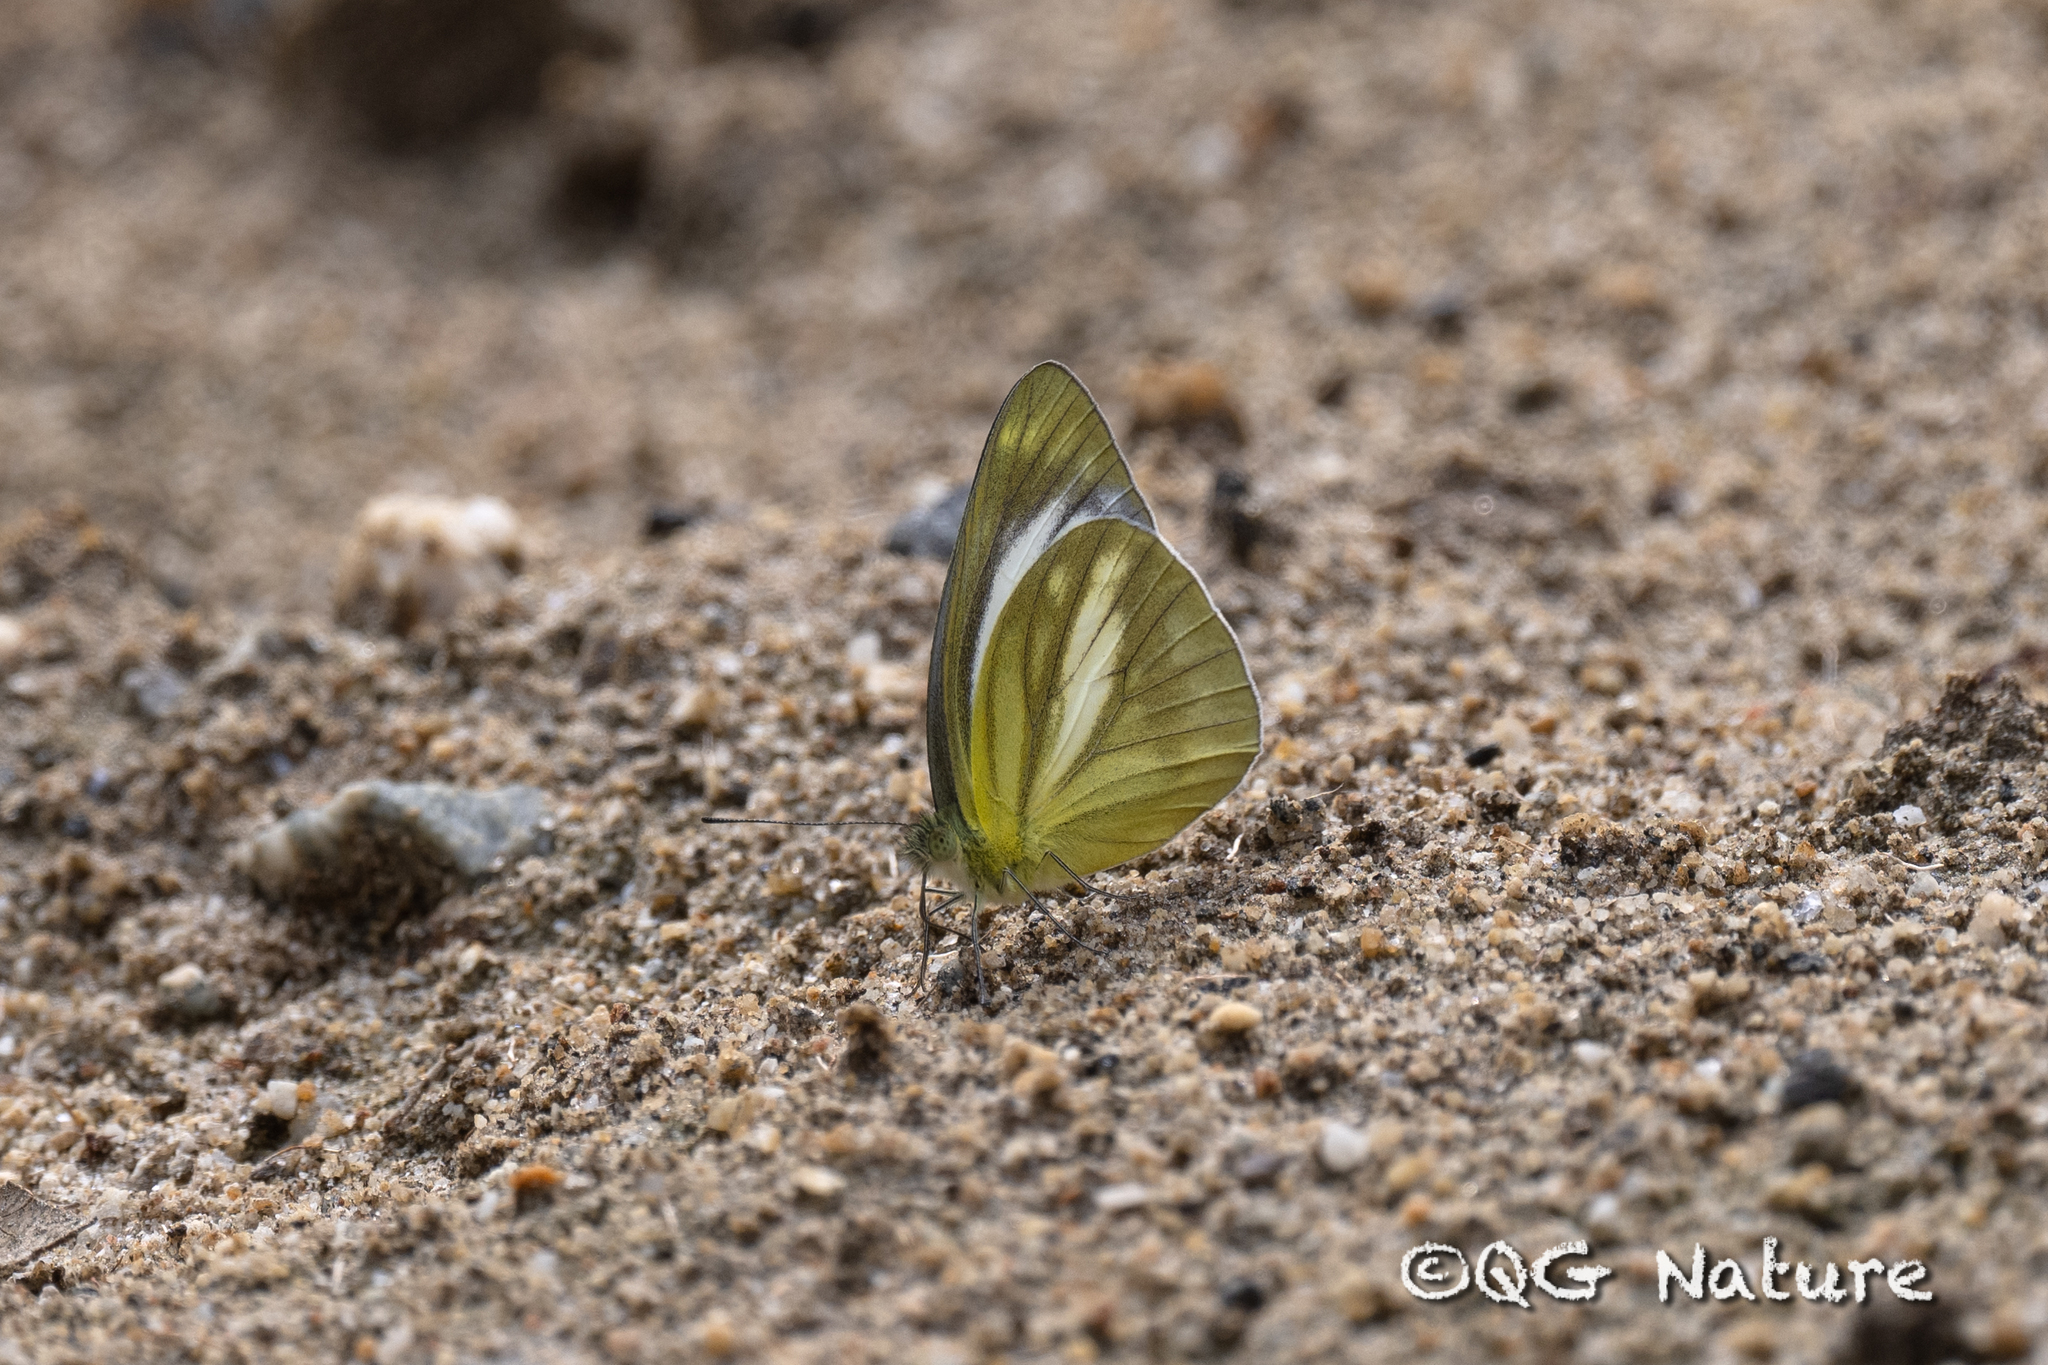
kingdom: Animalia
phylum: Arthropoda
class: Insecta
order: Lepidoptera
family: Pieridae
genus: Cepora
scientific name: Cepora nadina
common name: Lesser gull
